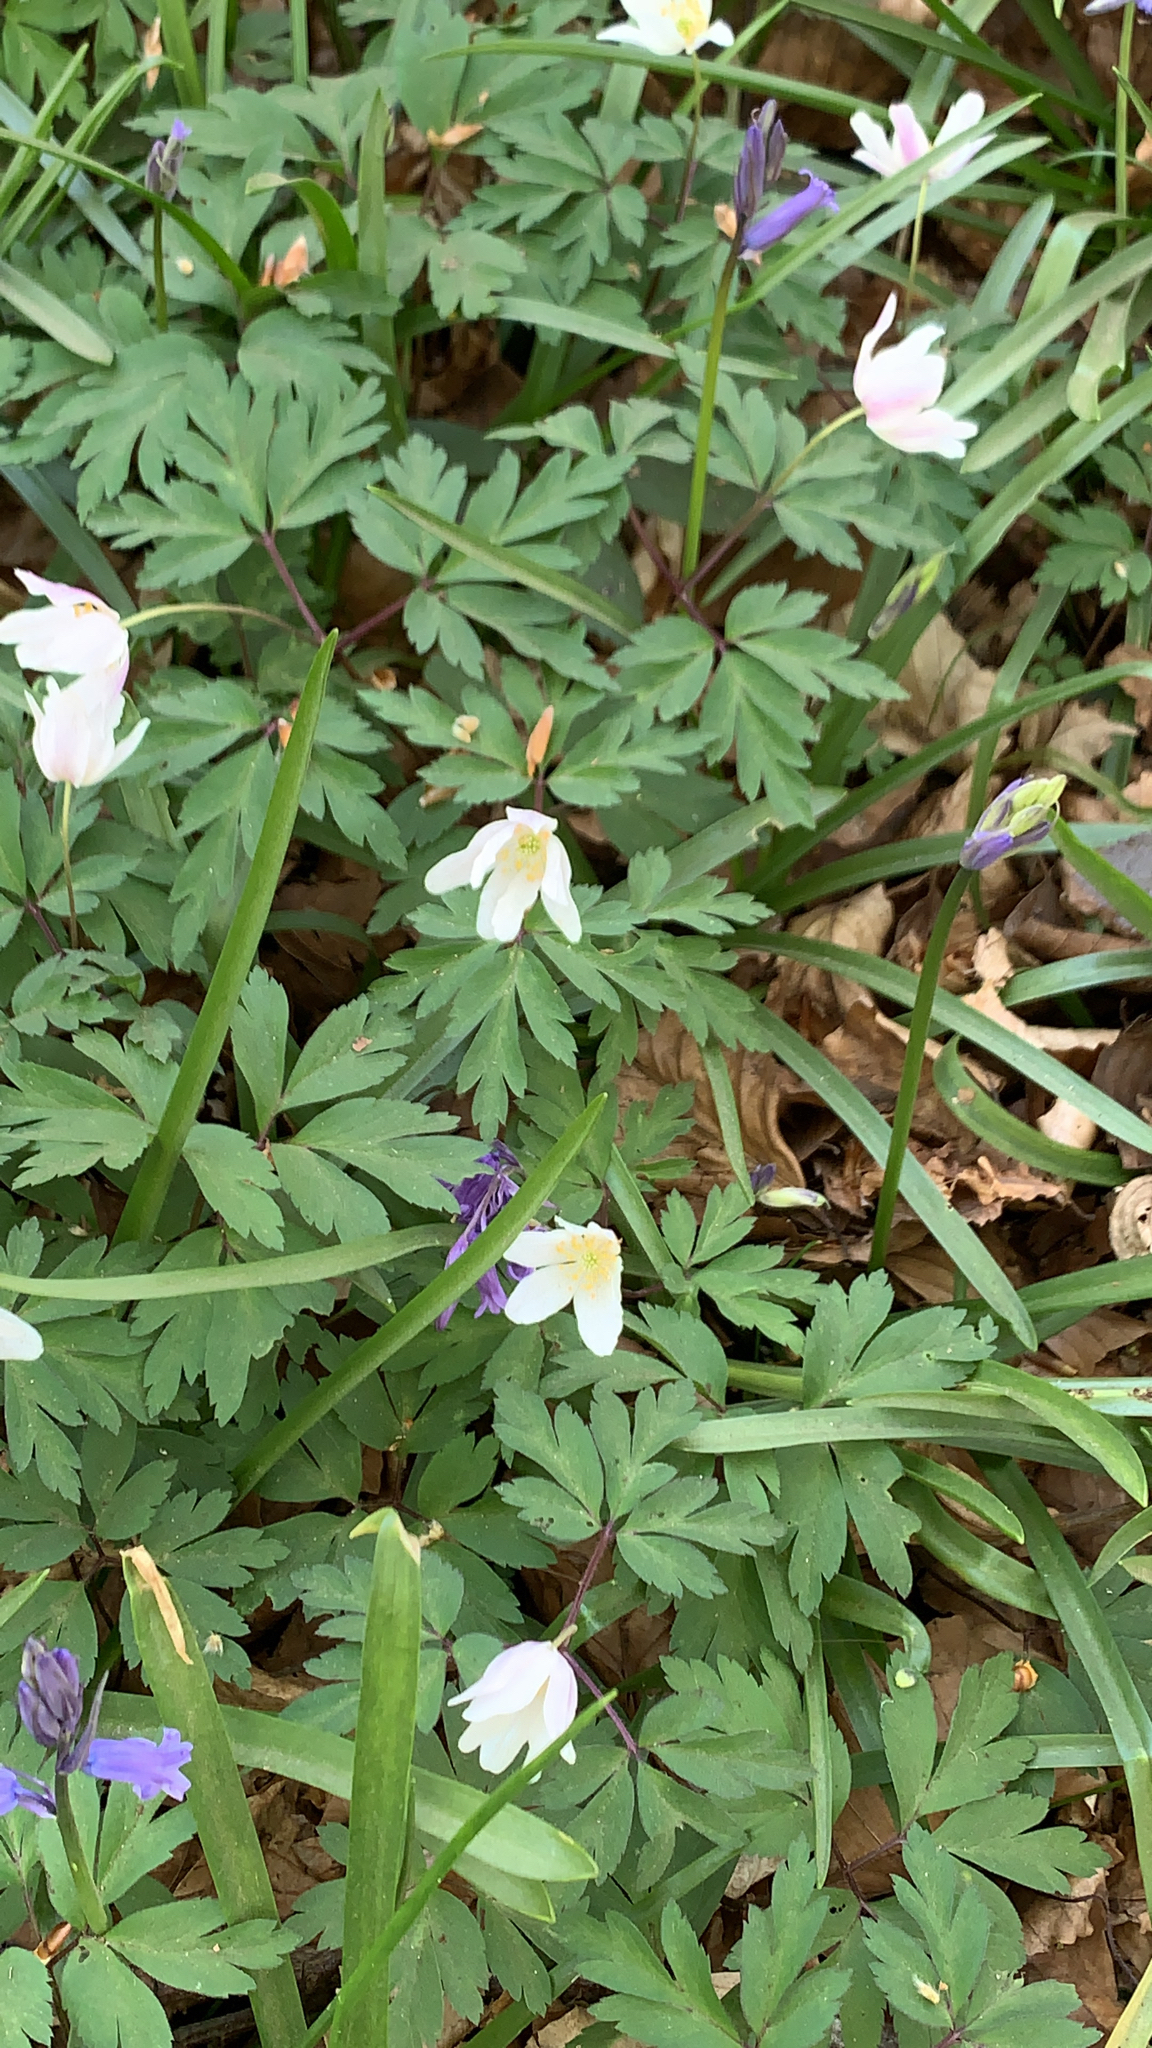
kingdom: Plantae
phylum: Tracheophyta
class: Magnoliopsida
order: Ranunculales
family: Ranunculaceae
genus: Anemone
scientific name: Anemone nemorosa
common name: Wood anemone
